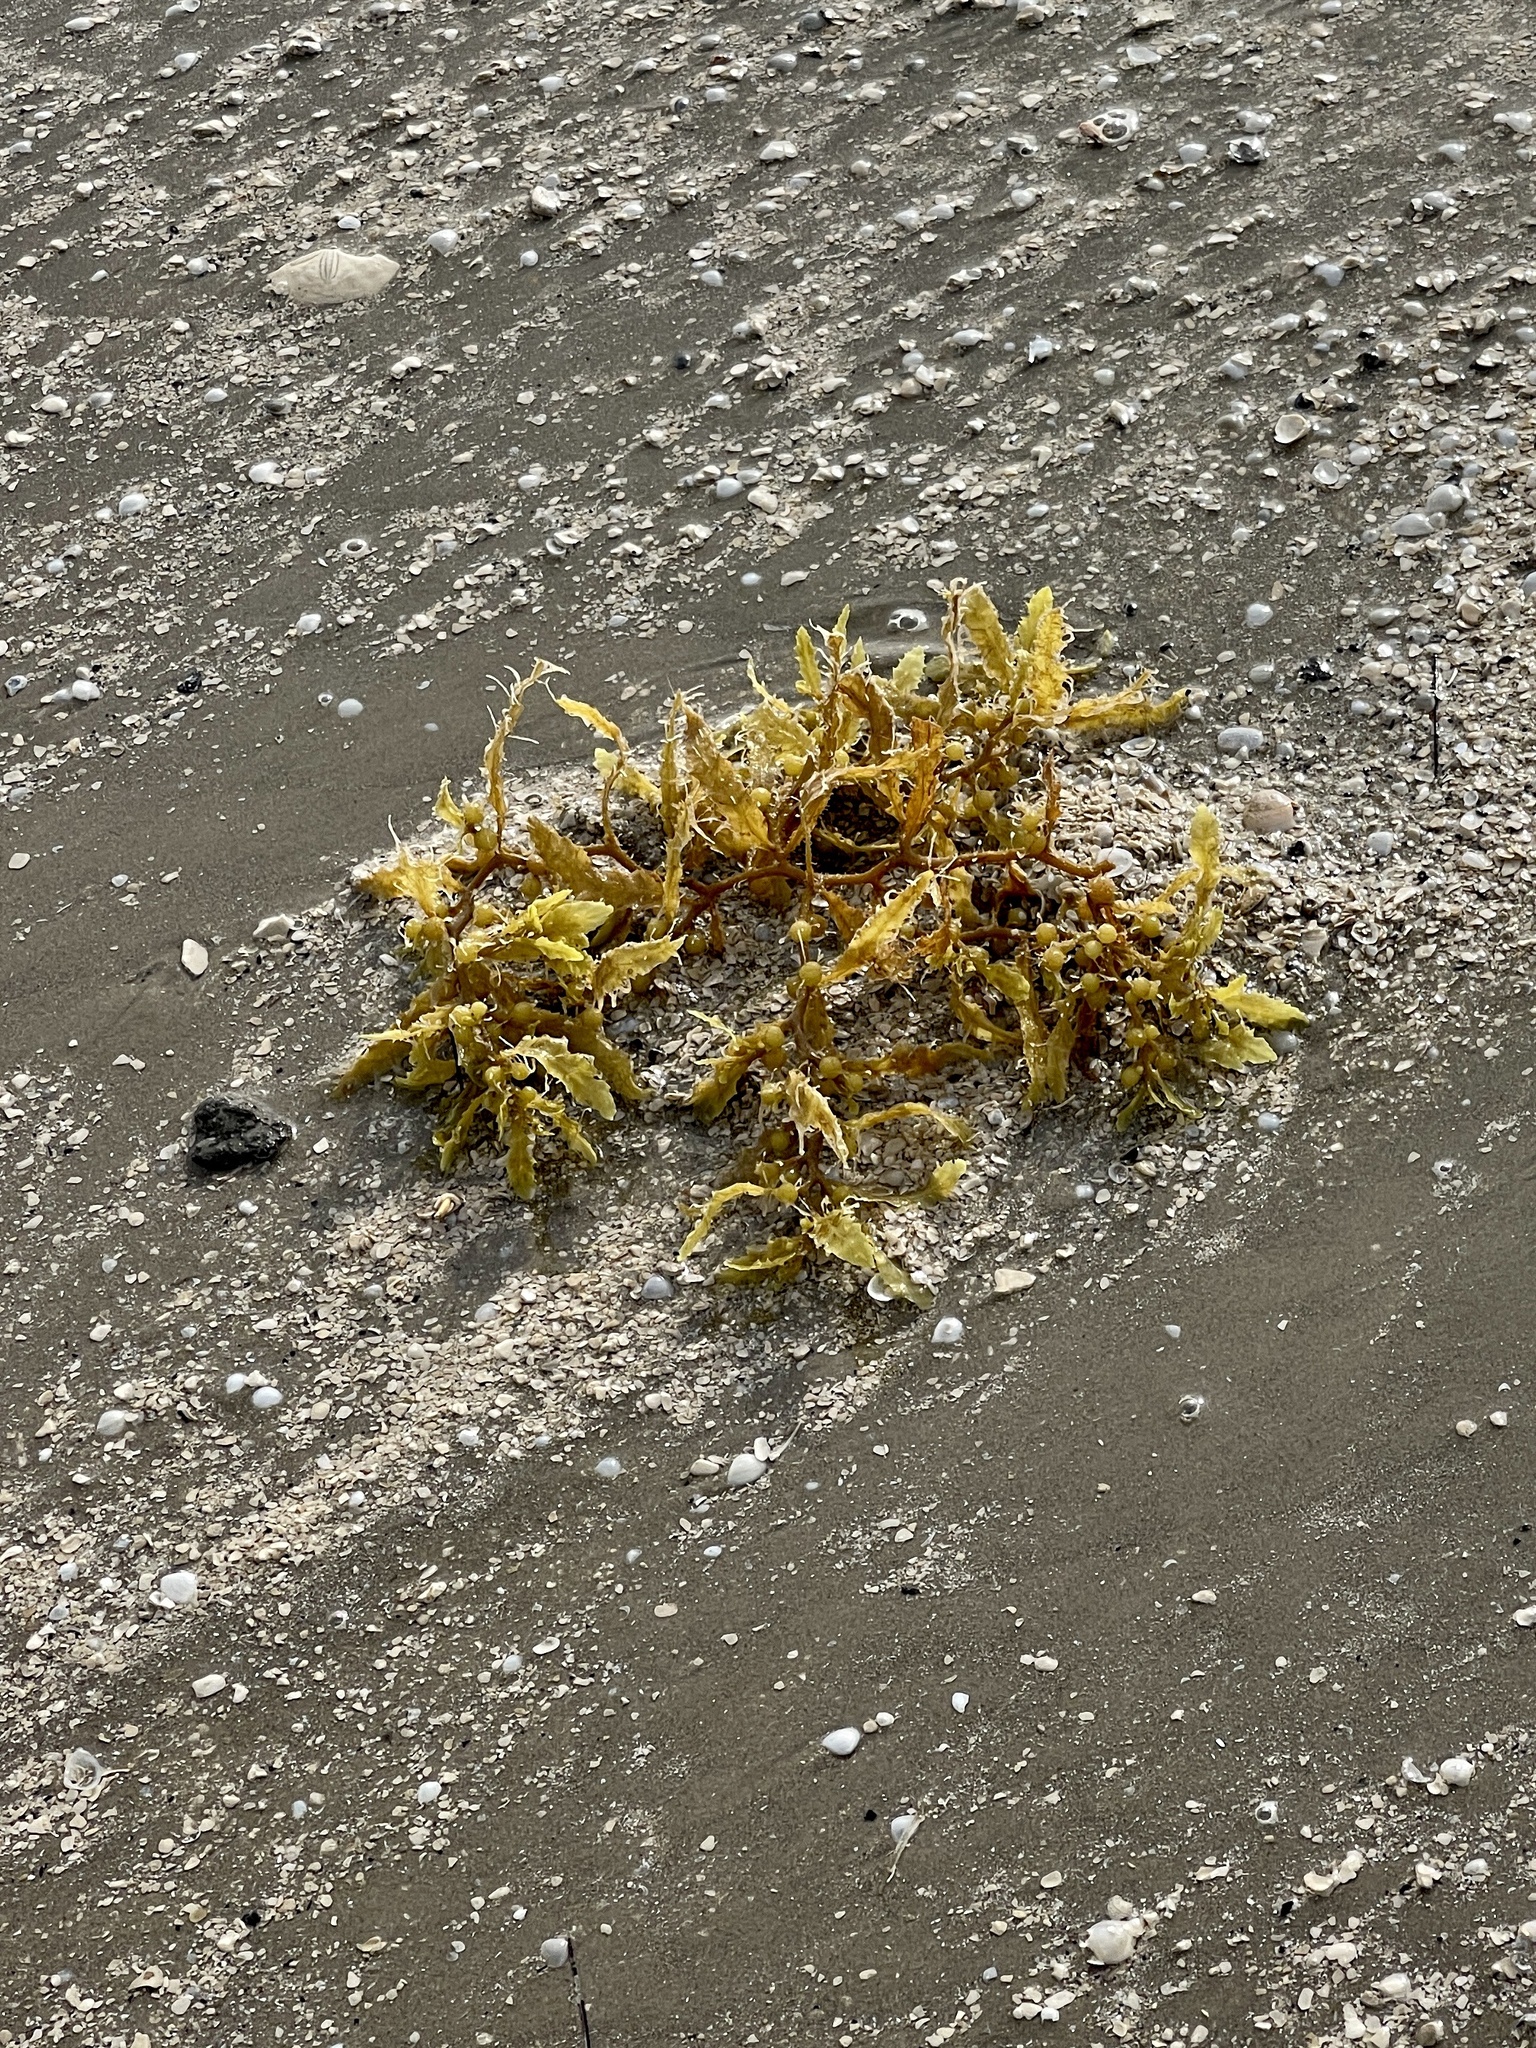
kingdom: Chromista
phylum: Ochrophyta
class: Phaeophyceae
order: Fucales
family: Sargassaceae
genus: Sargassum
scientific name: Sargassum fluitans
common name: Sargassum seaweed
